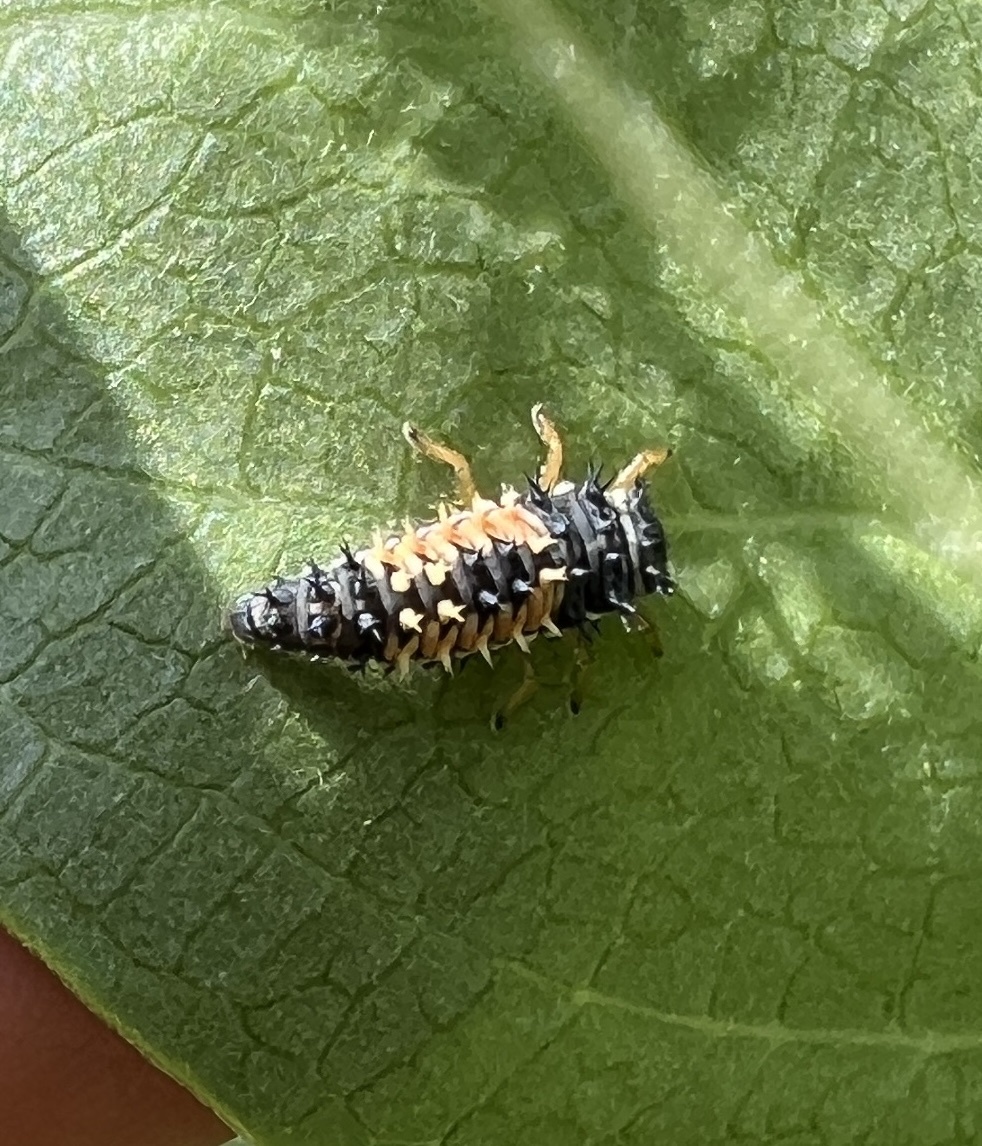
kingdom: Animalia
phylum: Arthropoda
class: Insecta
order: Coleoptera
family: Coccinellidae
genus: Harmonia
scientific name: Harmonia axyridis
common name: Harlequin ladybird
